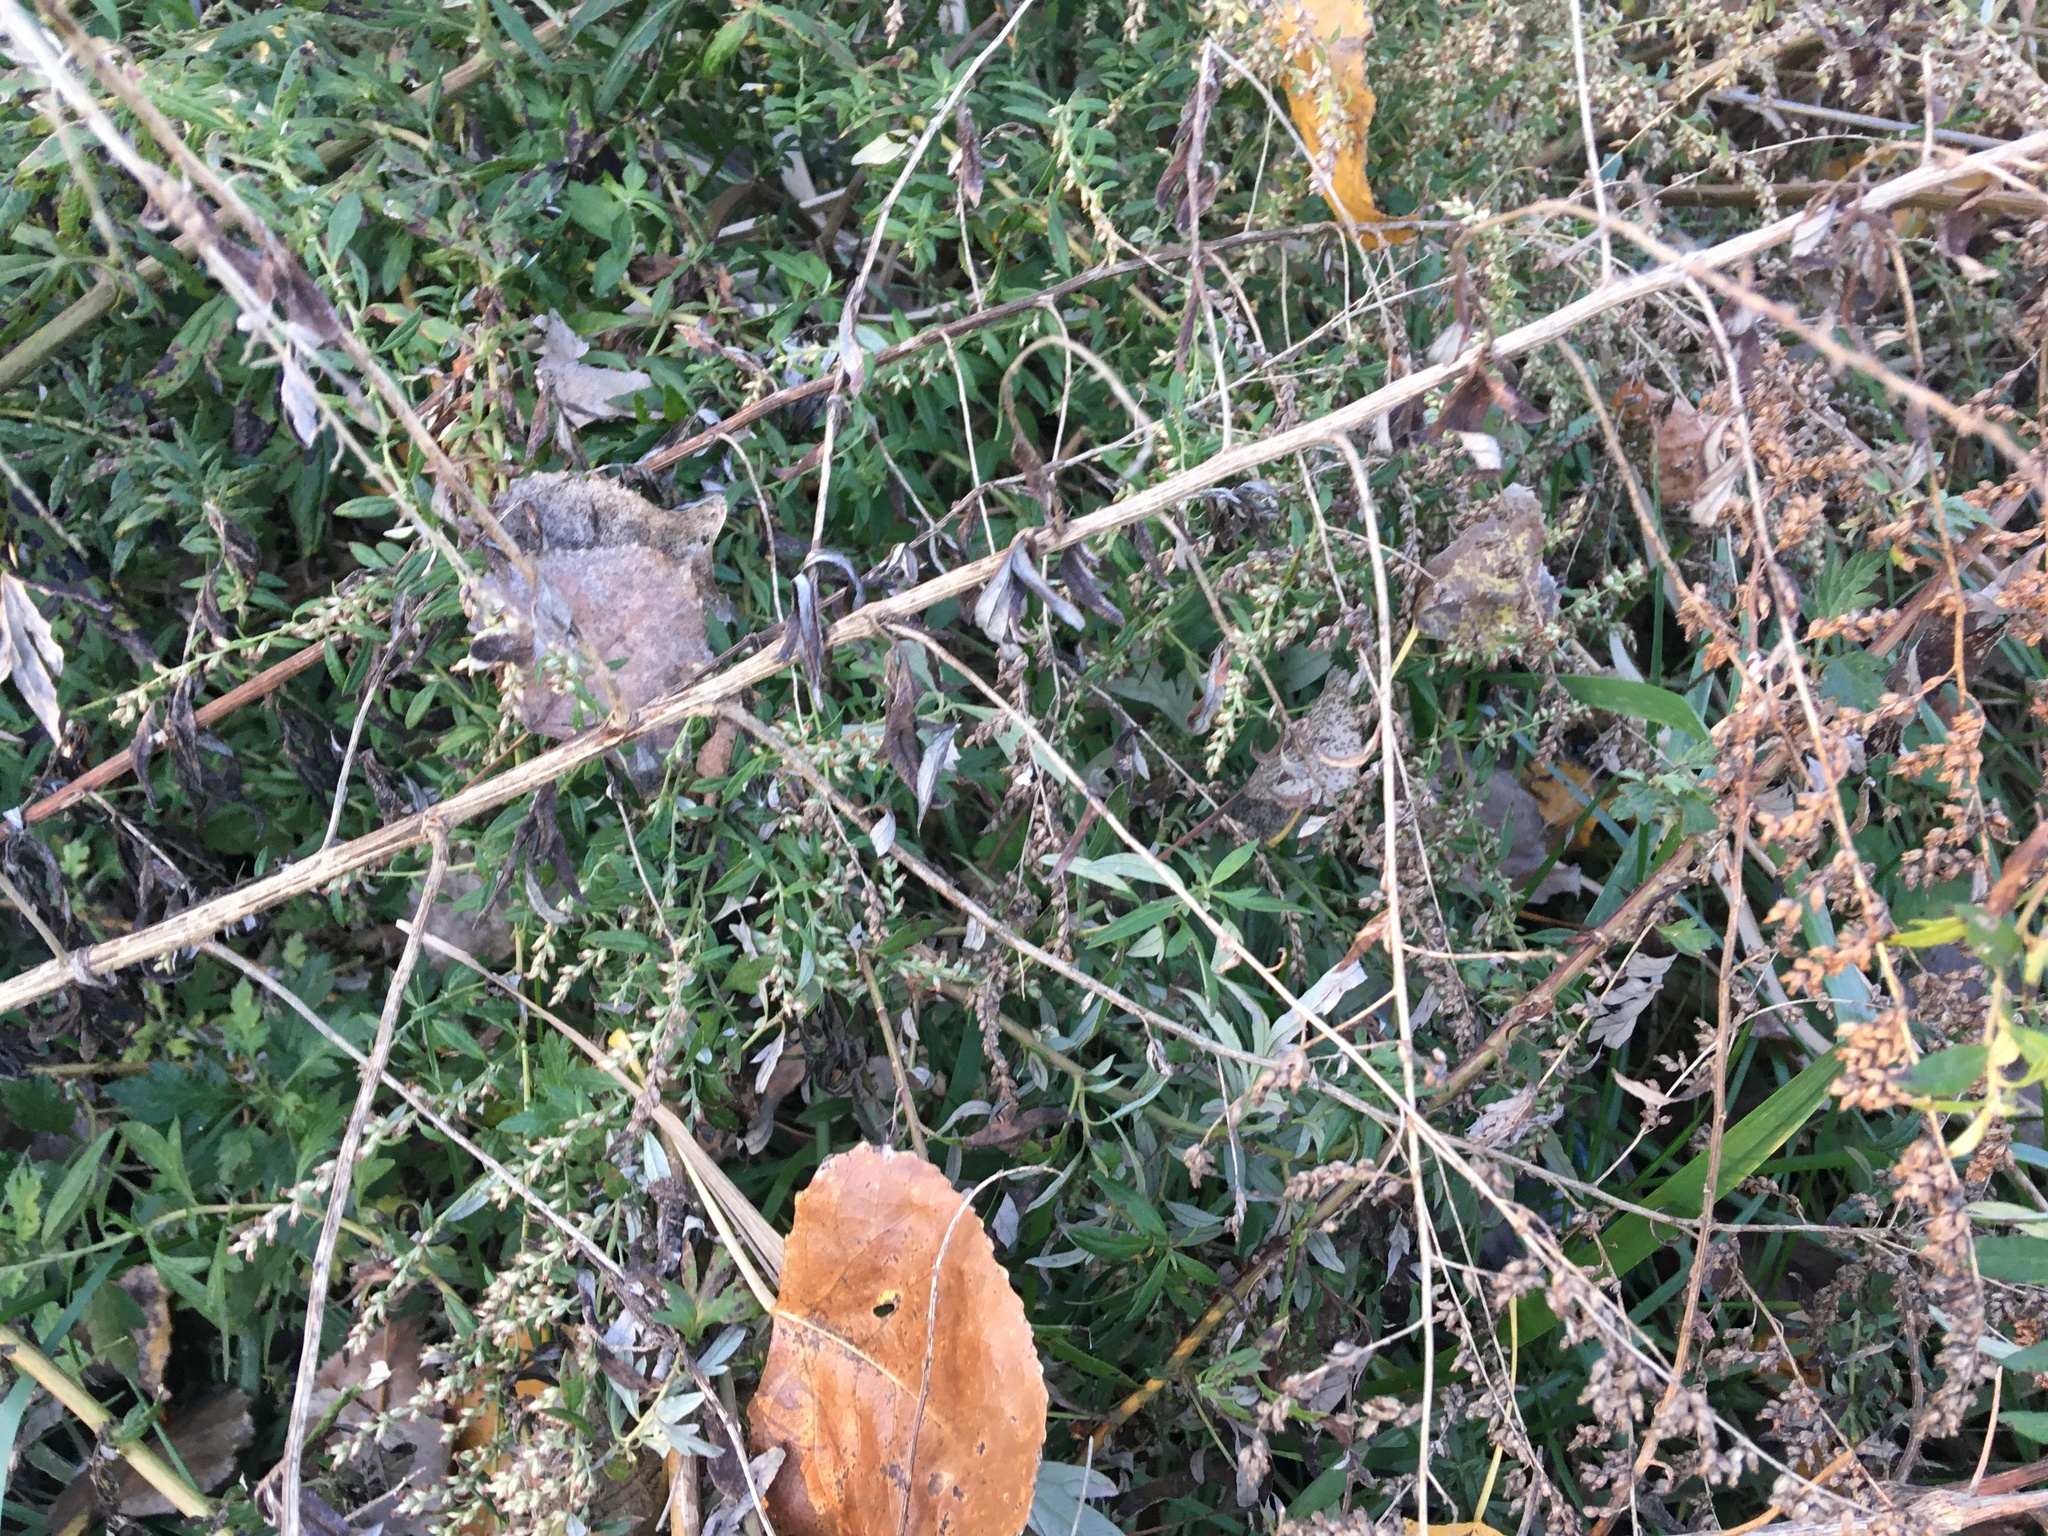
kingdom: Plantae
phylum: Tracheophyta
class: Magnoliopsida
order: Asterales
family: Asteraceae
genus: Artemisia
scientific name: Artemisia vulgaris
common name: Mugwort
